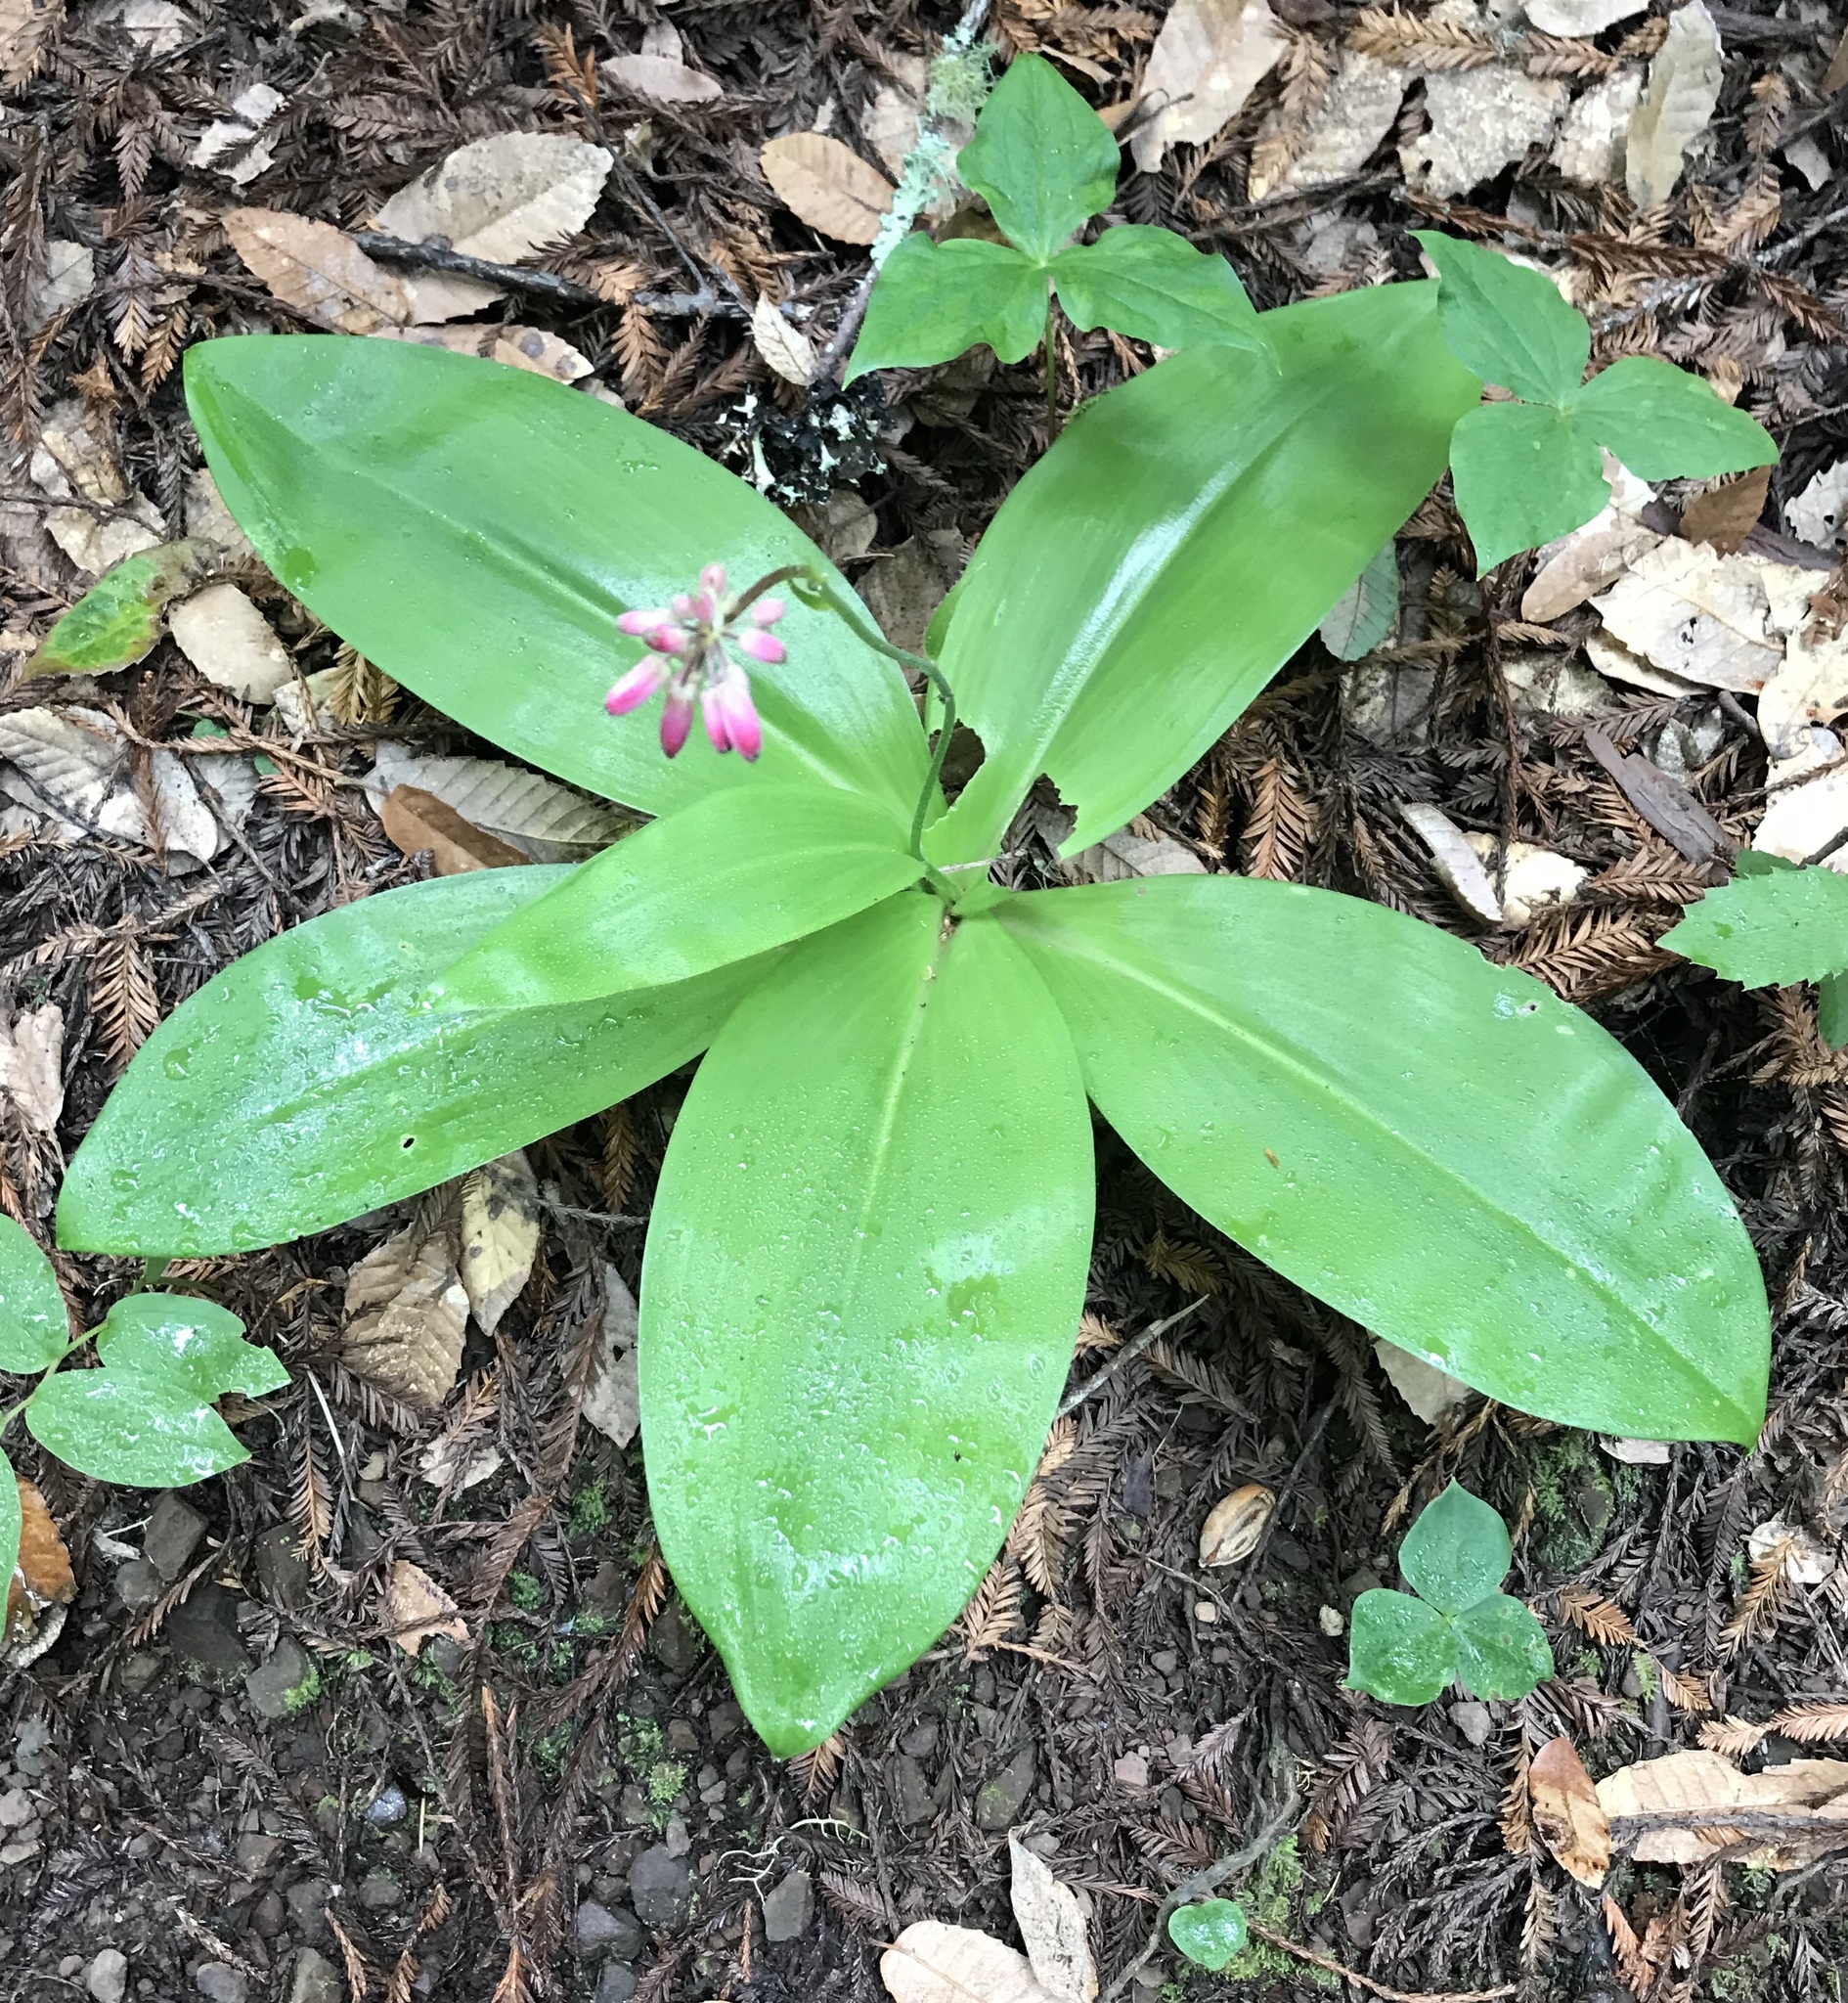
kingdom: Plantae
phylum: Tracheophyta
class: Liliopsida
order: Liliales
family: Liliaceae
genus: Clintonia
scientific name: Clintonia andrewsiana
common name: Red clintonia
